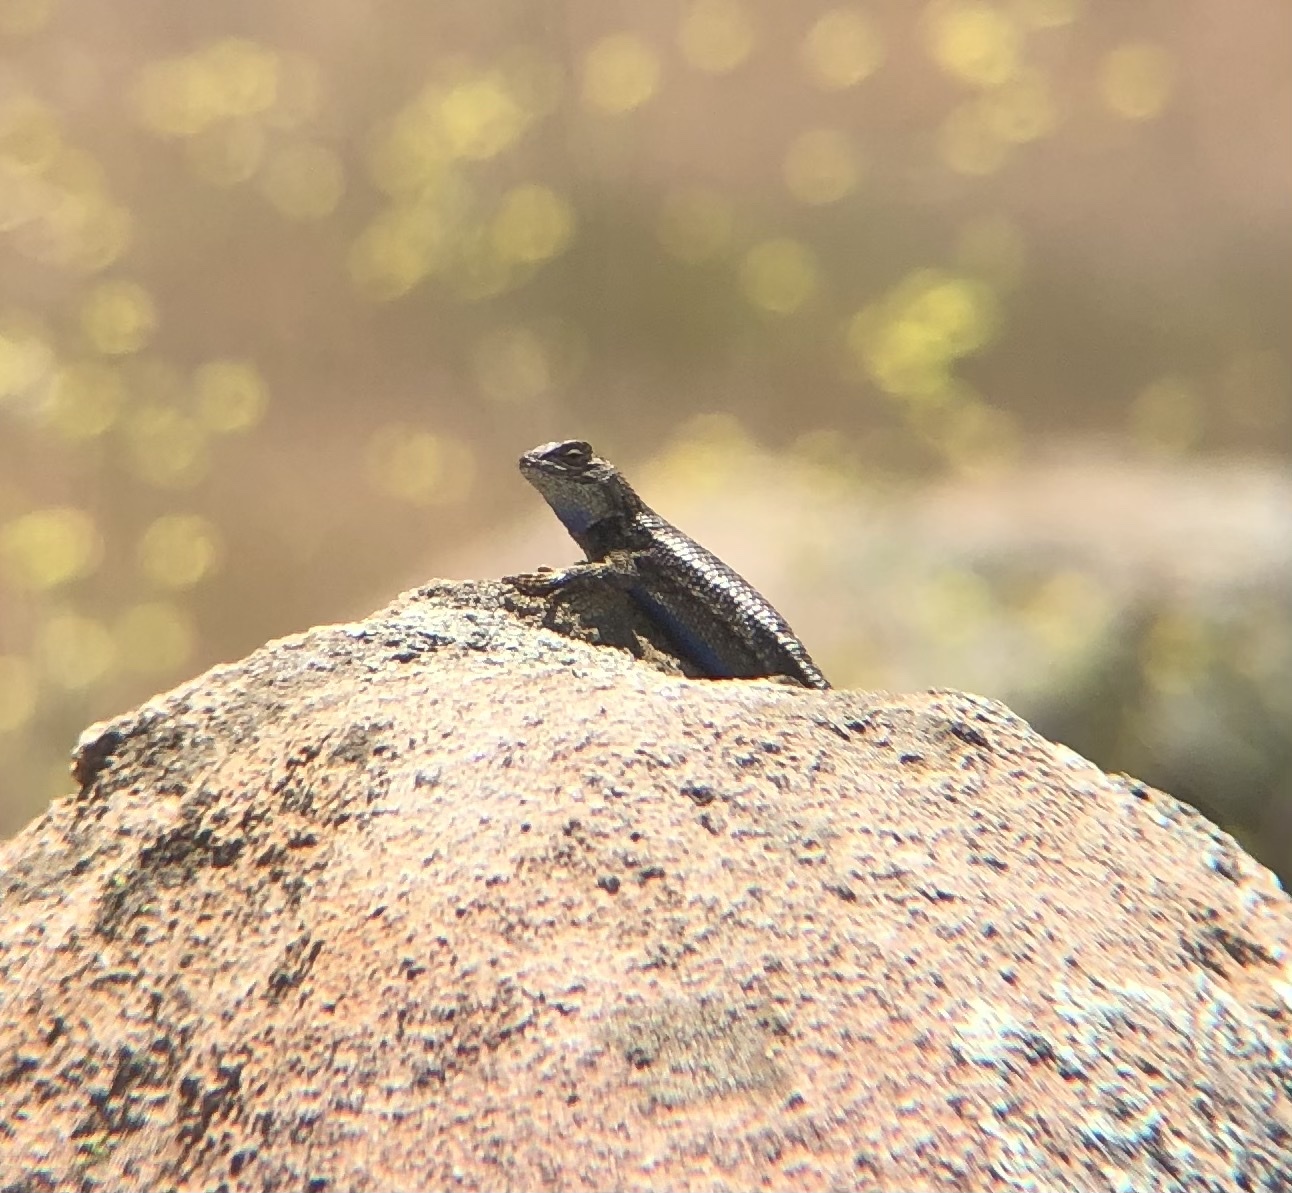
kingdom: Animalia
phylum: Chordata
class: Squamata
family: Phrynosomatidae
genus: Sceloporus
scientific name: Sceloporus occidentalis
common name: Western fence lizard
